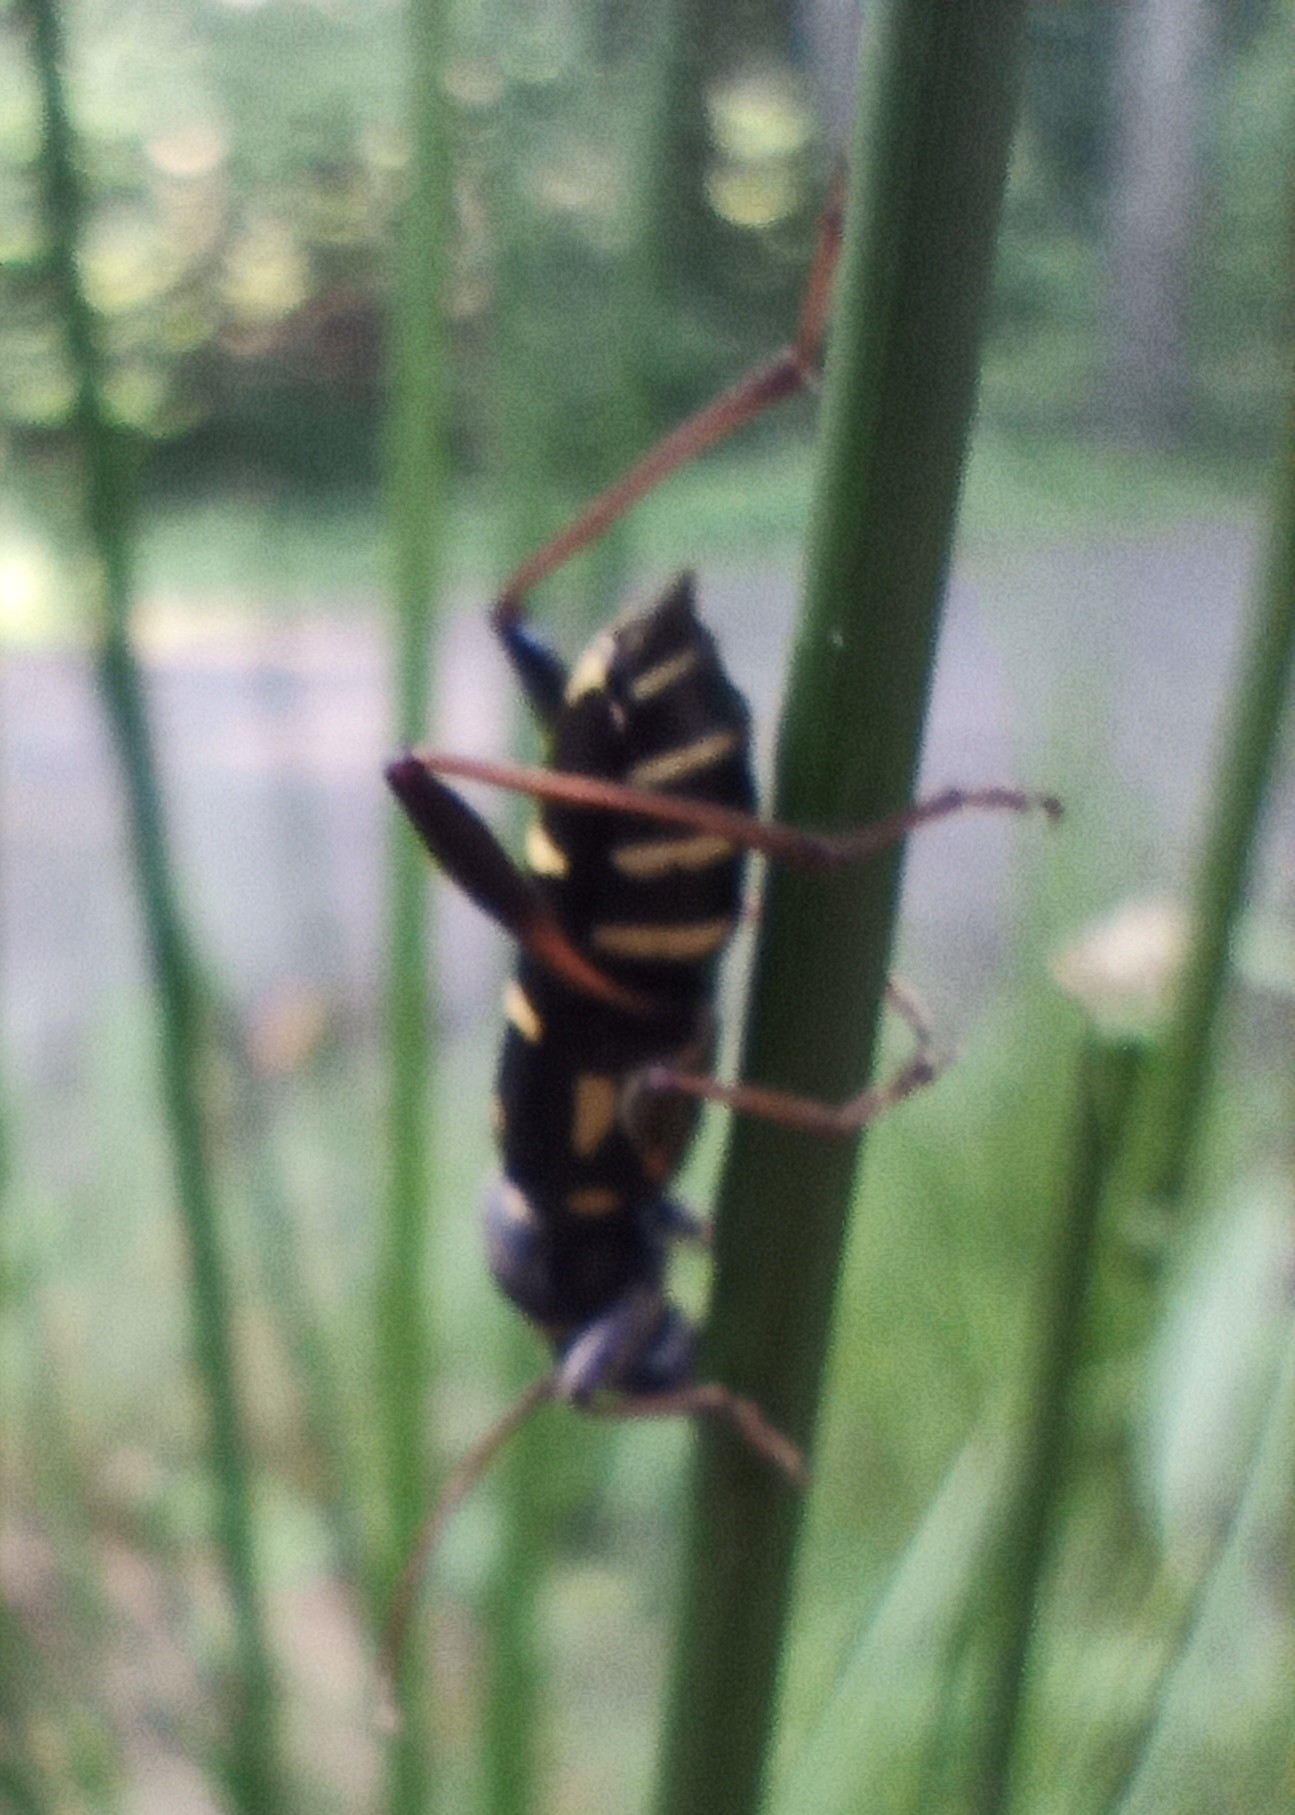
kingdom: Animalia
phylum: Arthropoda
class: Insecta
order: Coleoptera
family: Cerambycidae
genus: Clytus
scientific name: Clytus lama
